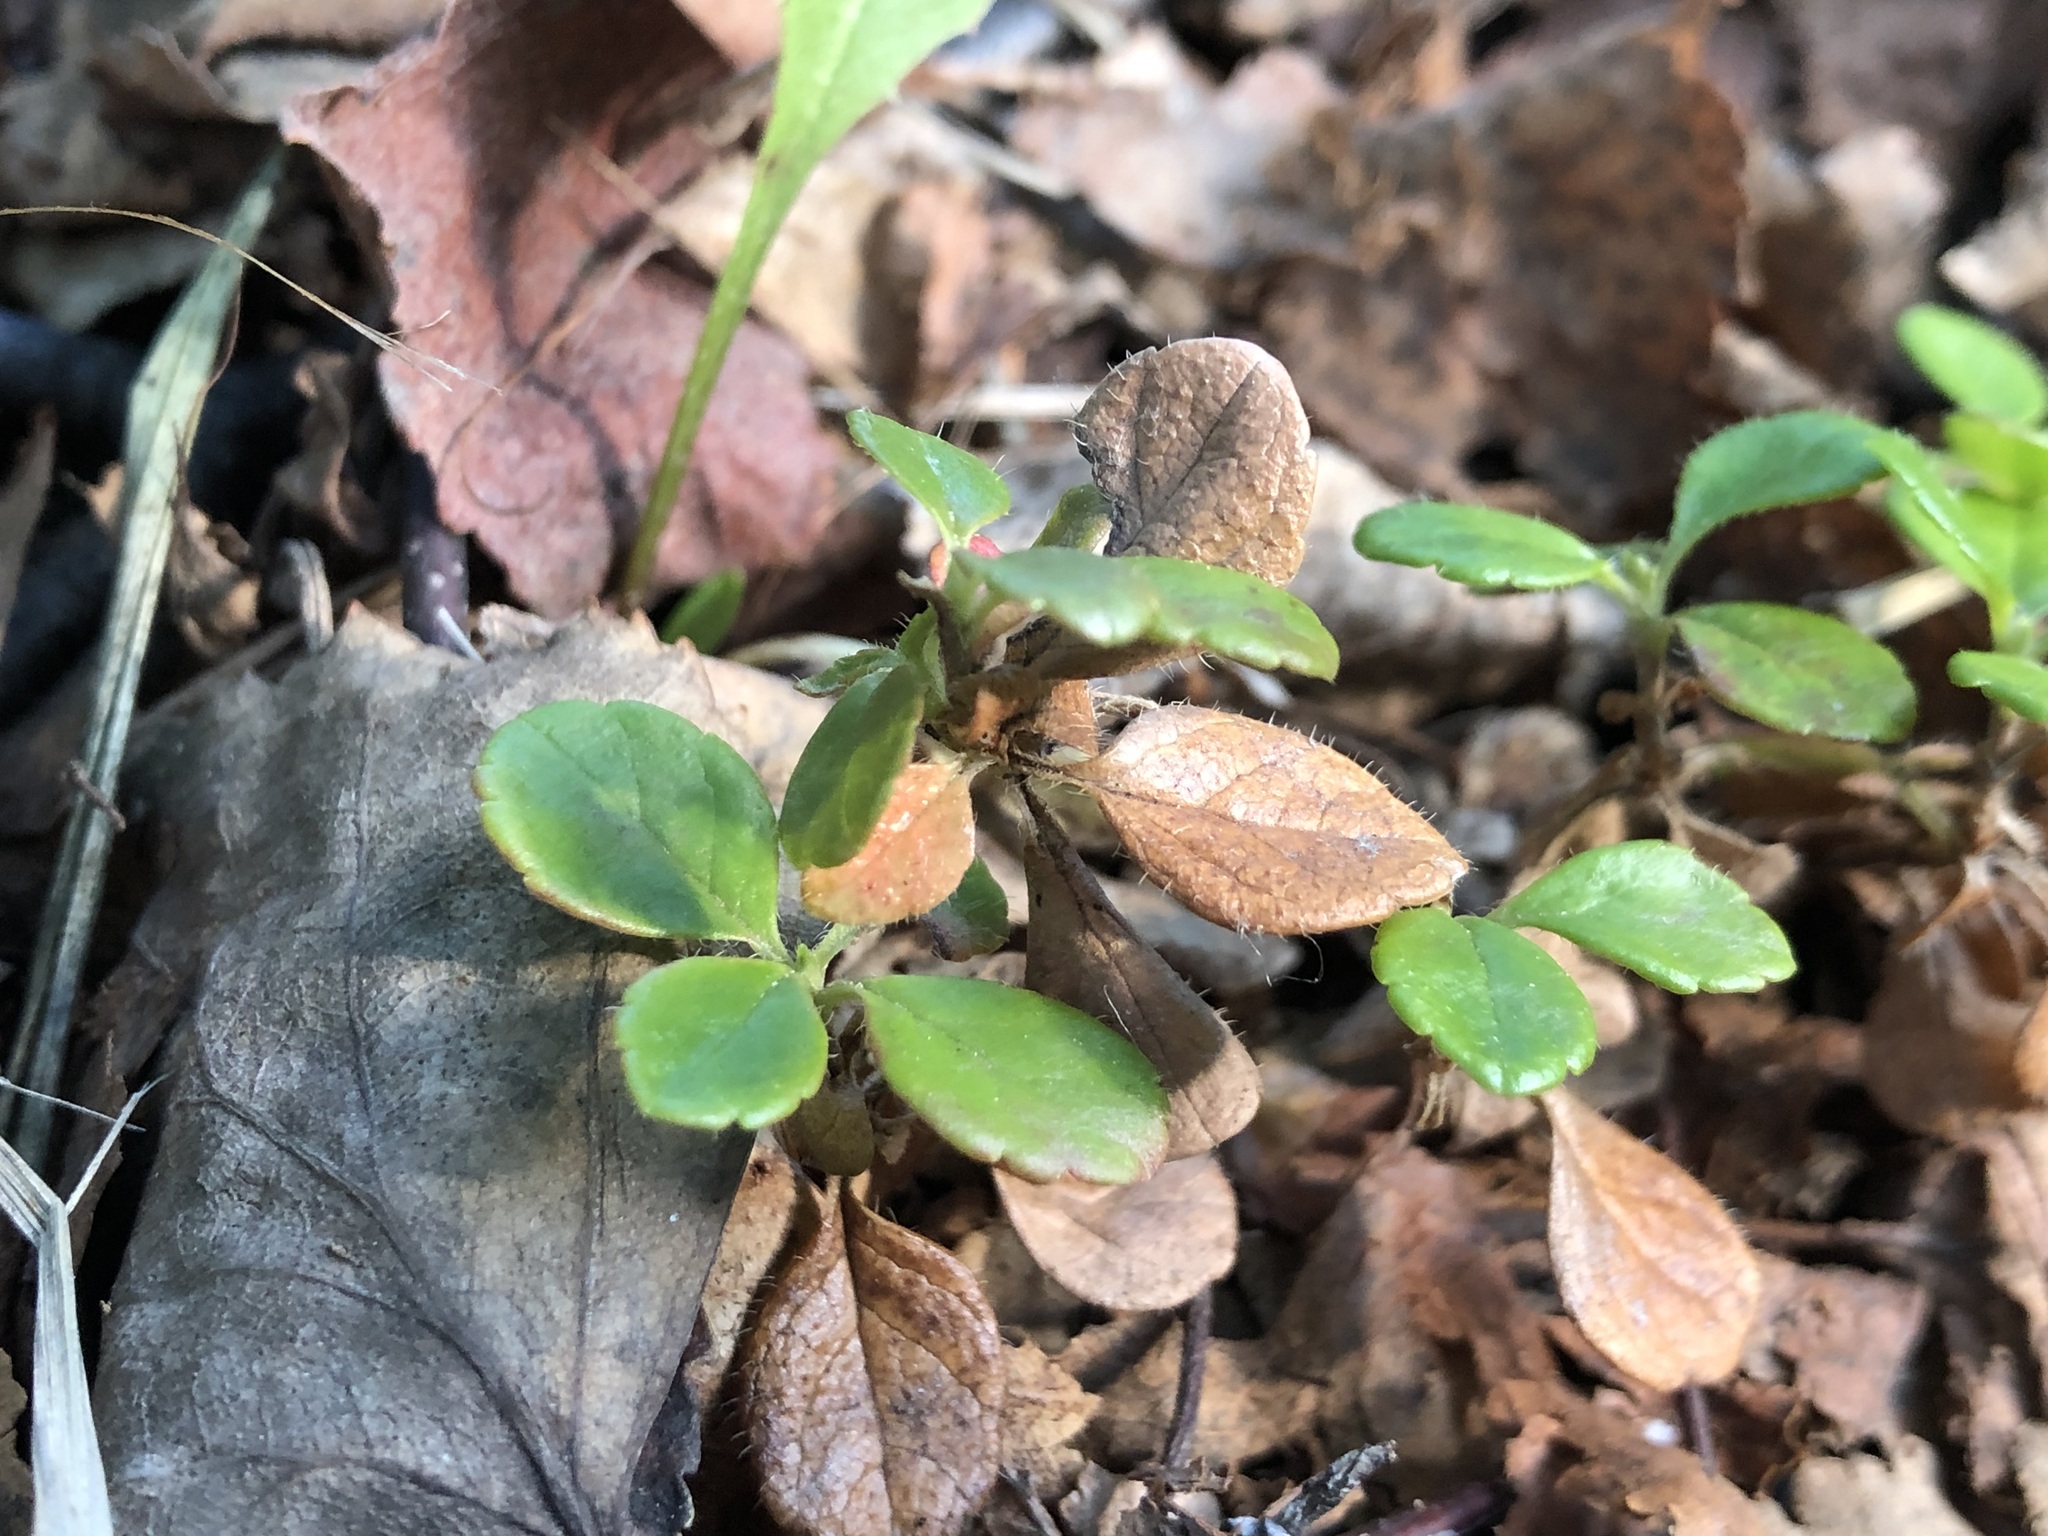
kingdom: Plantae
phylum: Tracheophyta
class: Magnoliopsida
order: Dipsacales
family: Caprifoliaceae
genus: Linnaea
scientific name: Linnaea borealis
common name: Twinflower
